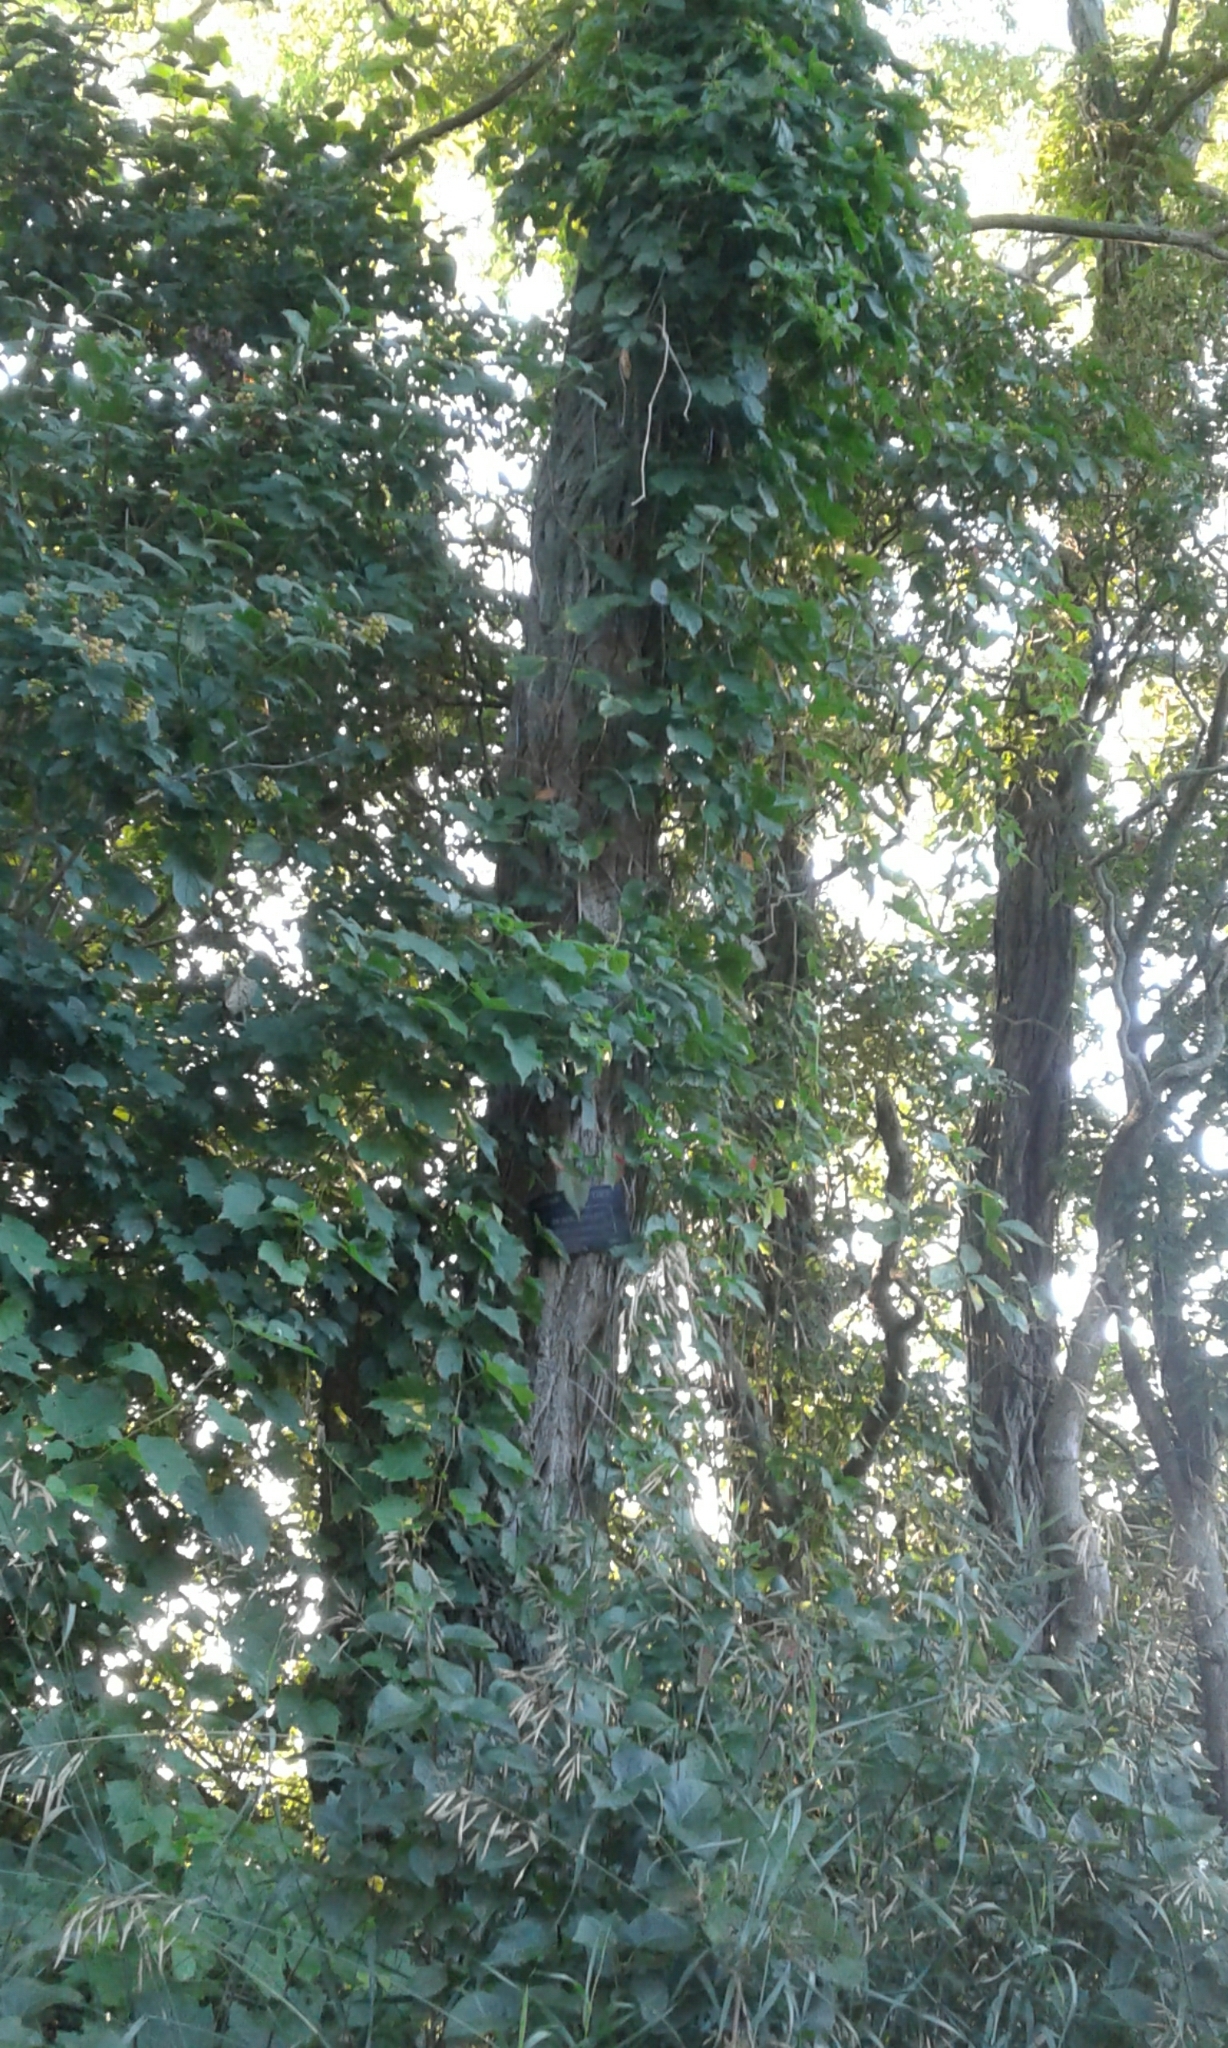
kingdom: Plantae
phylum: Tracheophyta
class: Magnoliopsida
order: Fabales
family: Fabaceae
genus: Robinia
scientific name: Robinia pseudoacacia
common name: Black locust
